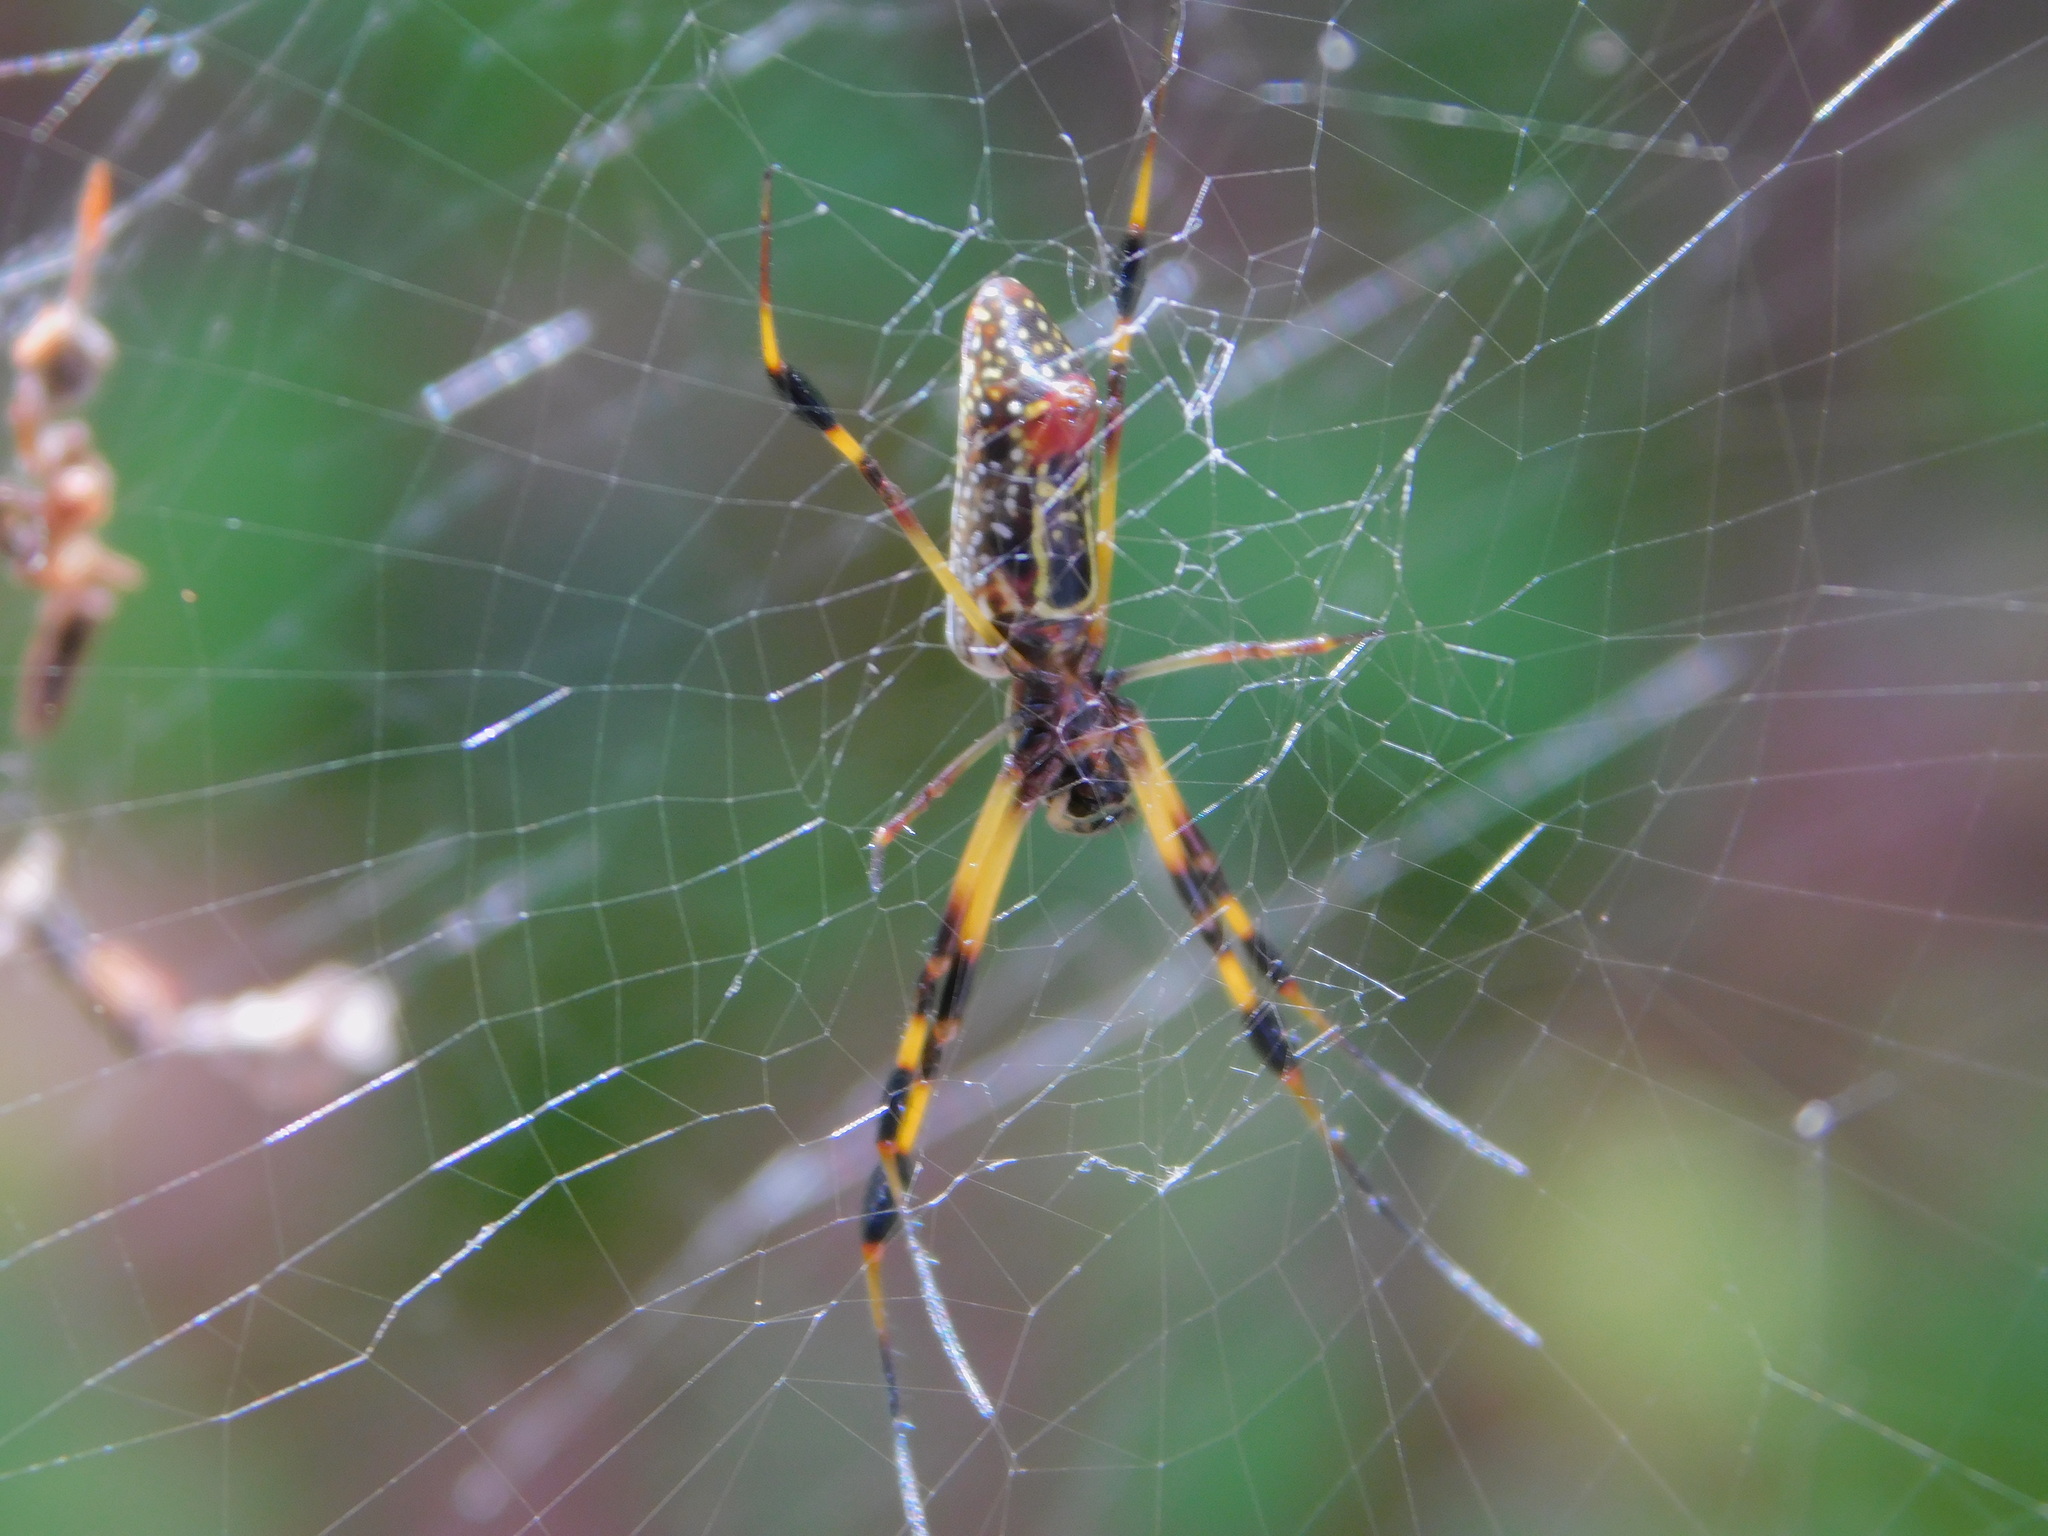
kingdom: Animalia
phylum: Arthropoda
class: Arachnida
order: Araneae
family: Araneidae
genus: Trichonephila
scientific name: Trichonephila clavipes
